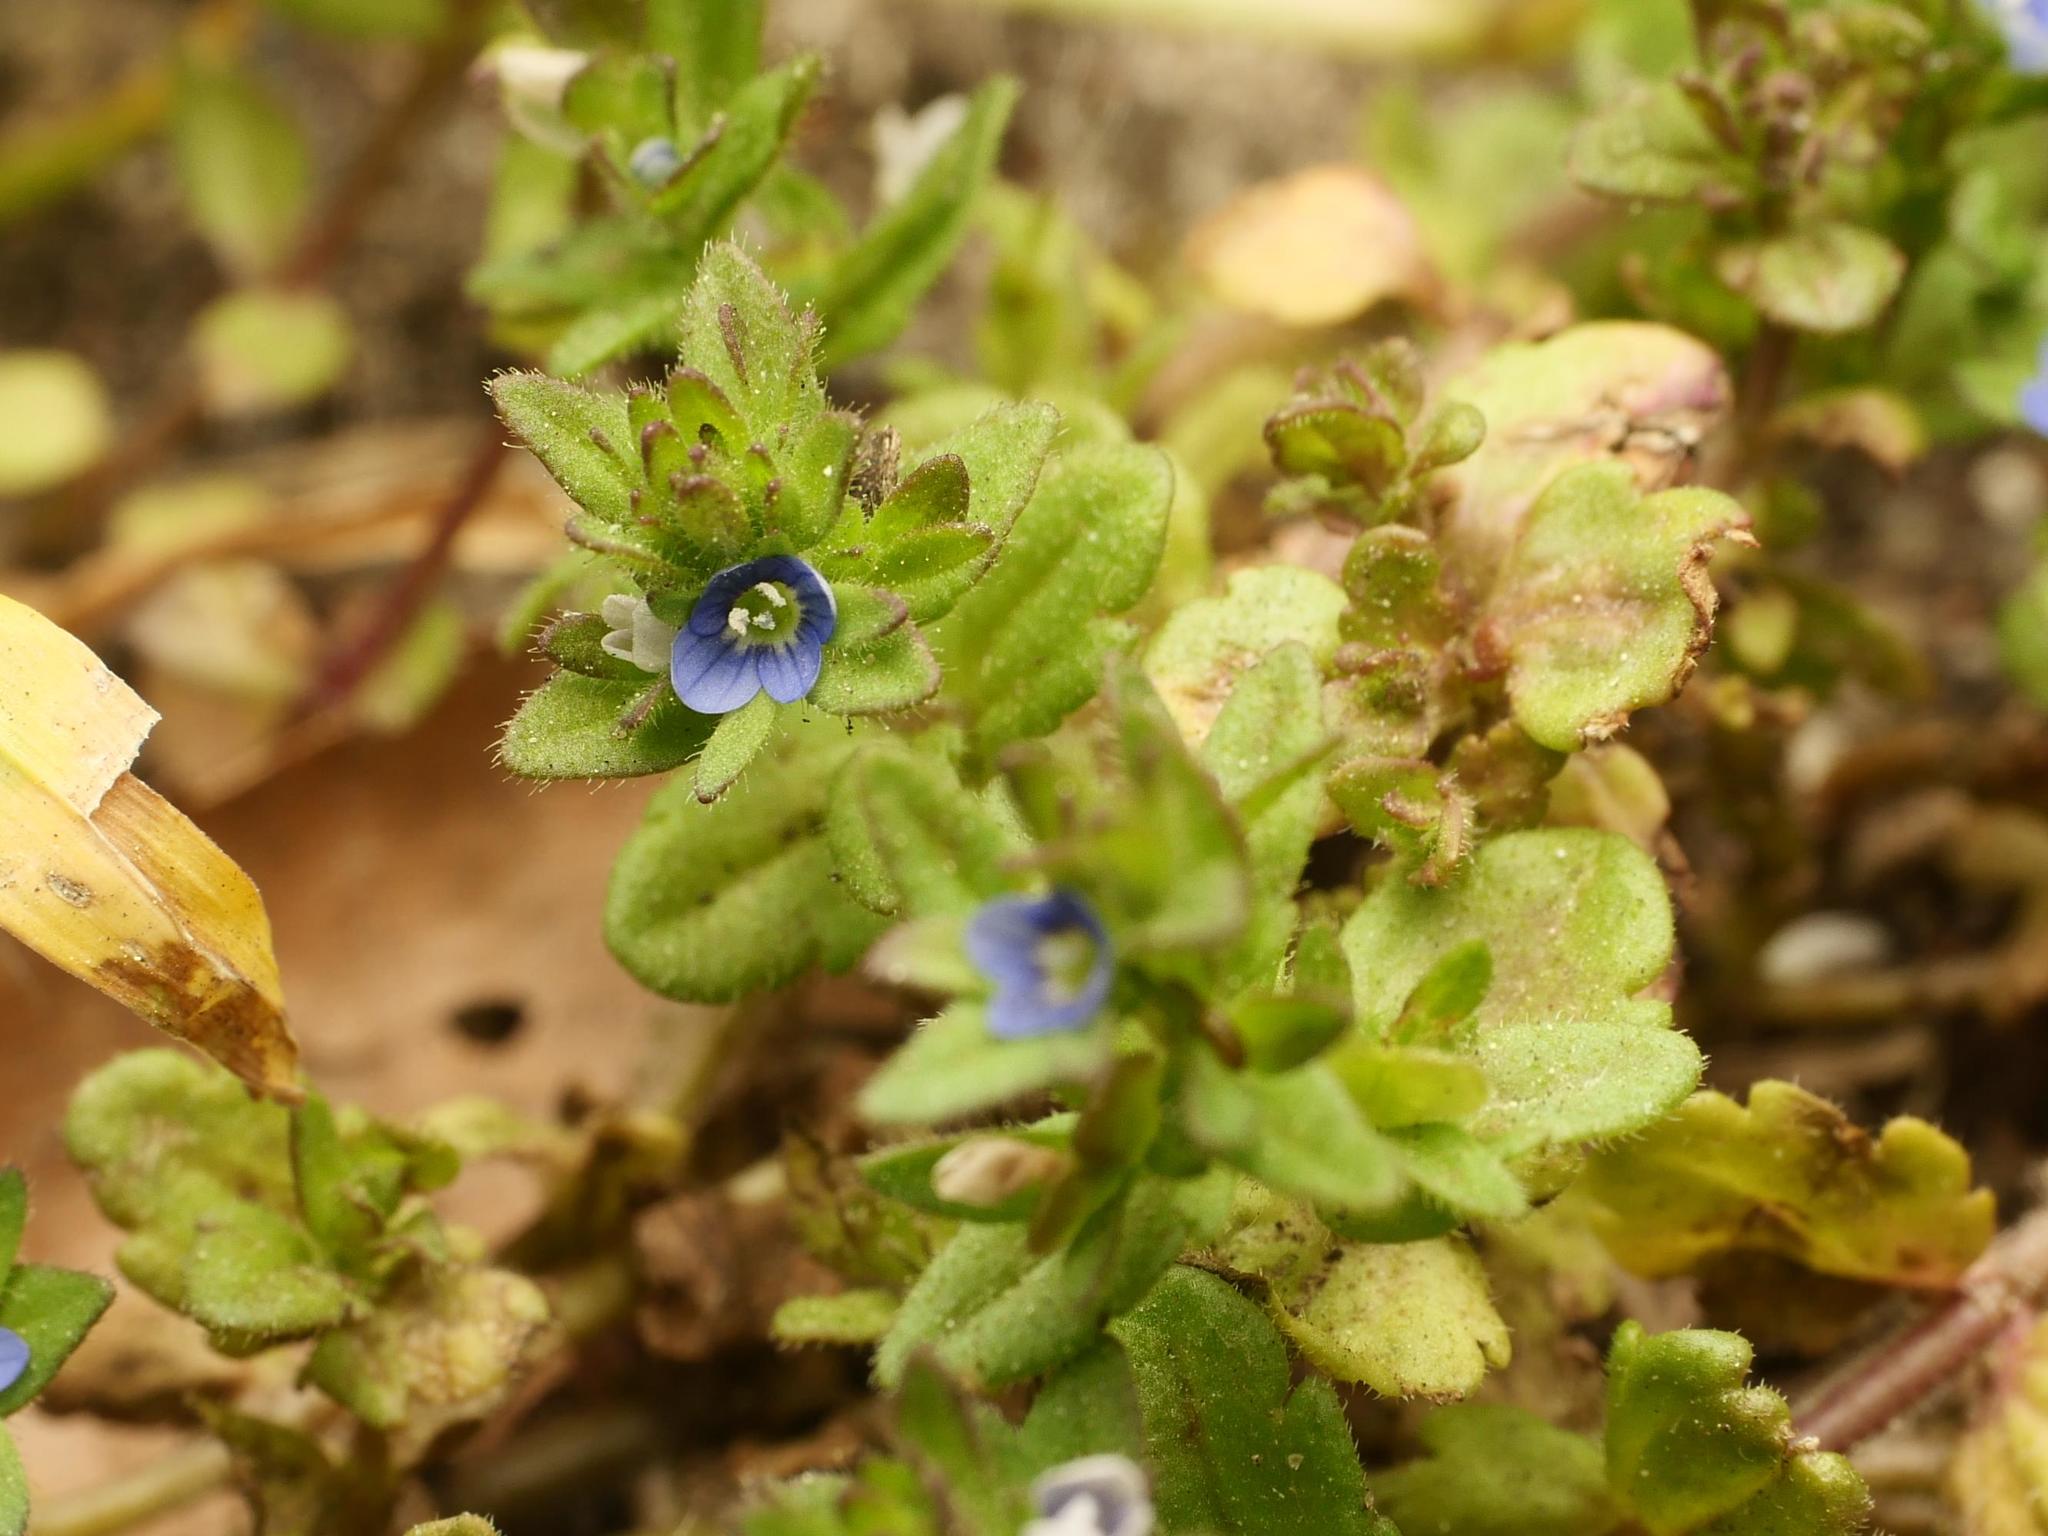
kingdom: Plantae
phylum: Tracheophyta
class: Magnoliopsida
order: Lamiales
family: Plantaginaceae
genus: Veronica
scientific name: Veronica arvensis
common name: Corn speedwell
